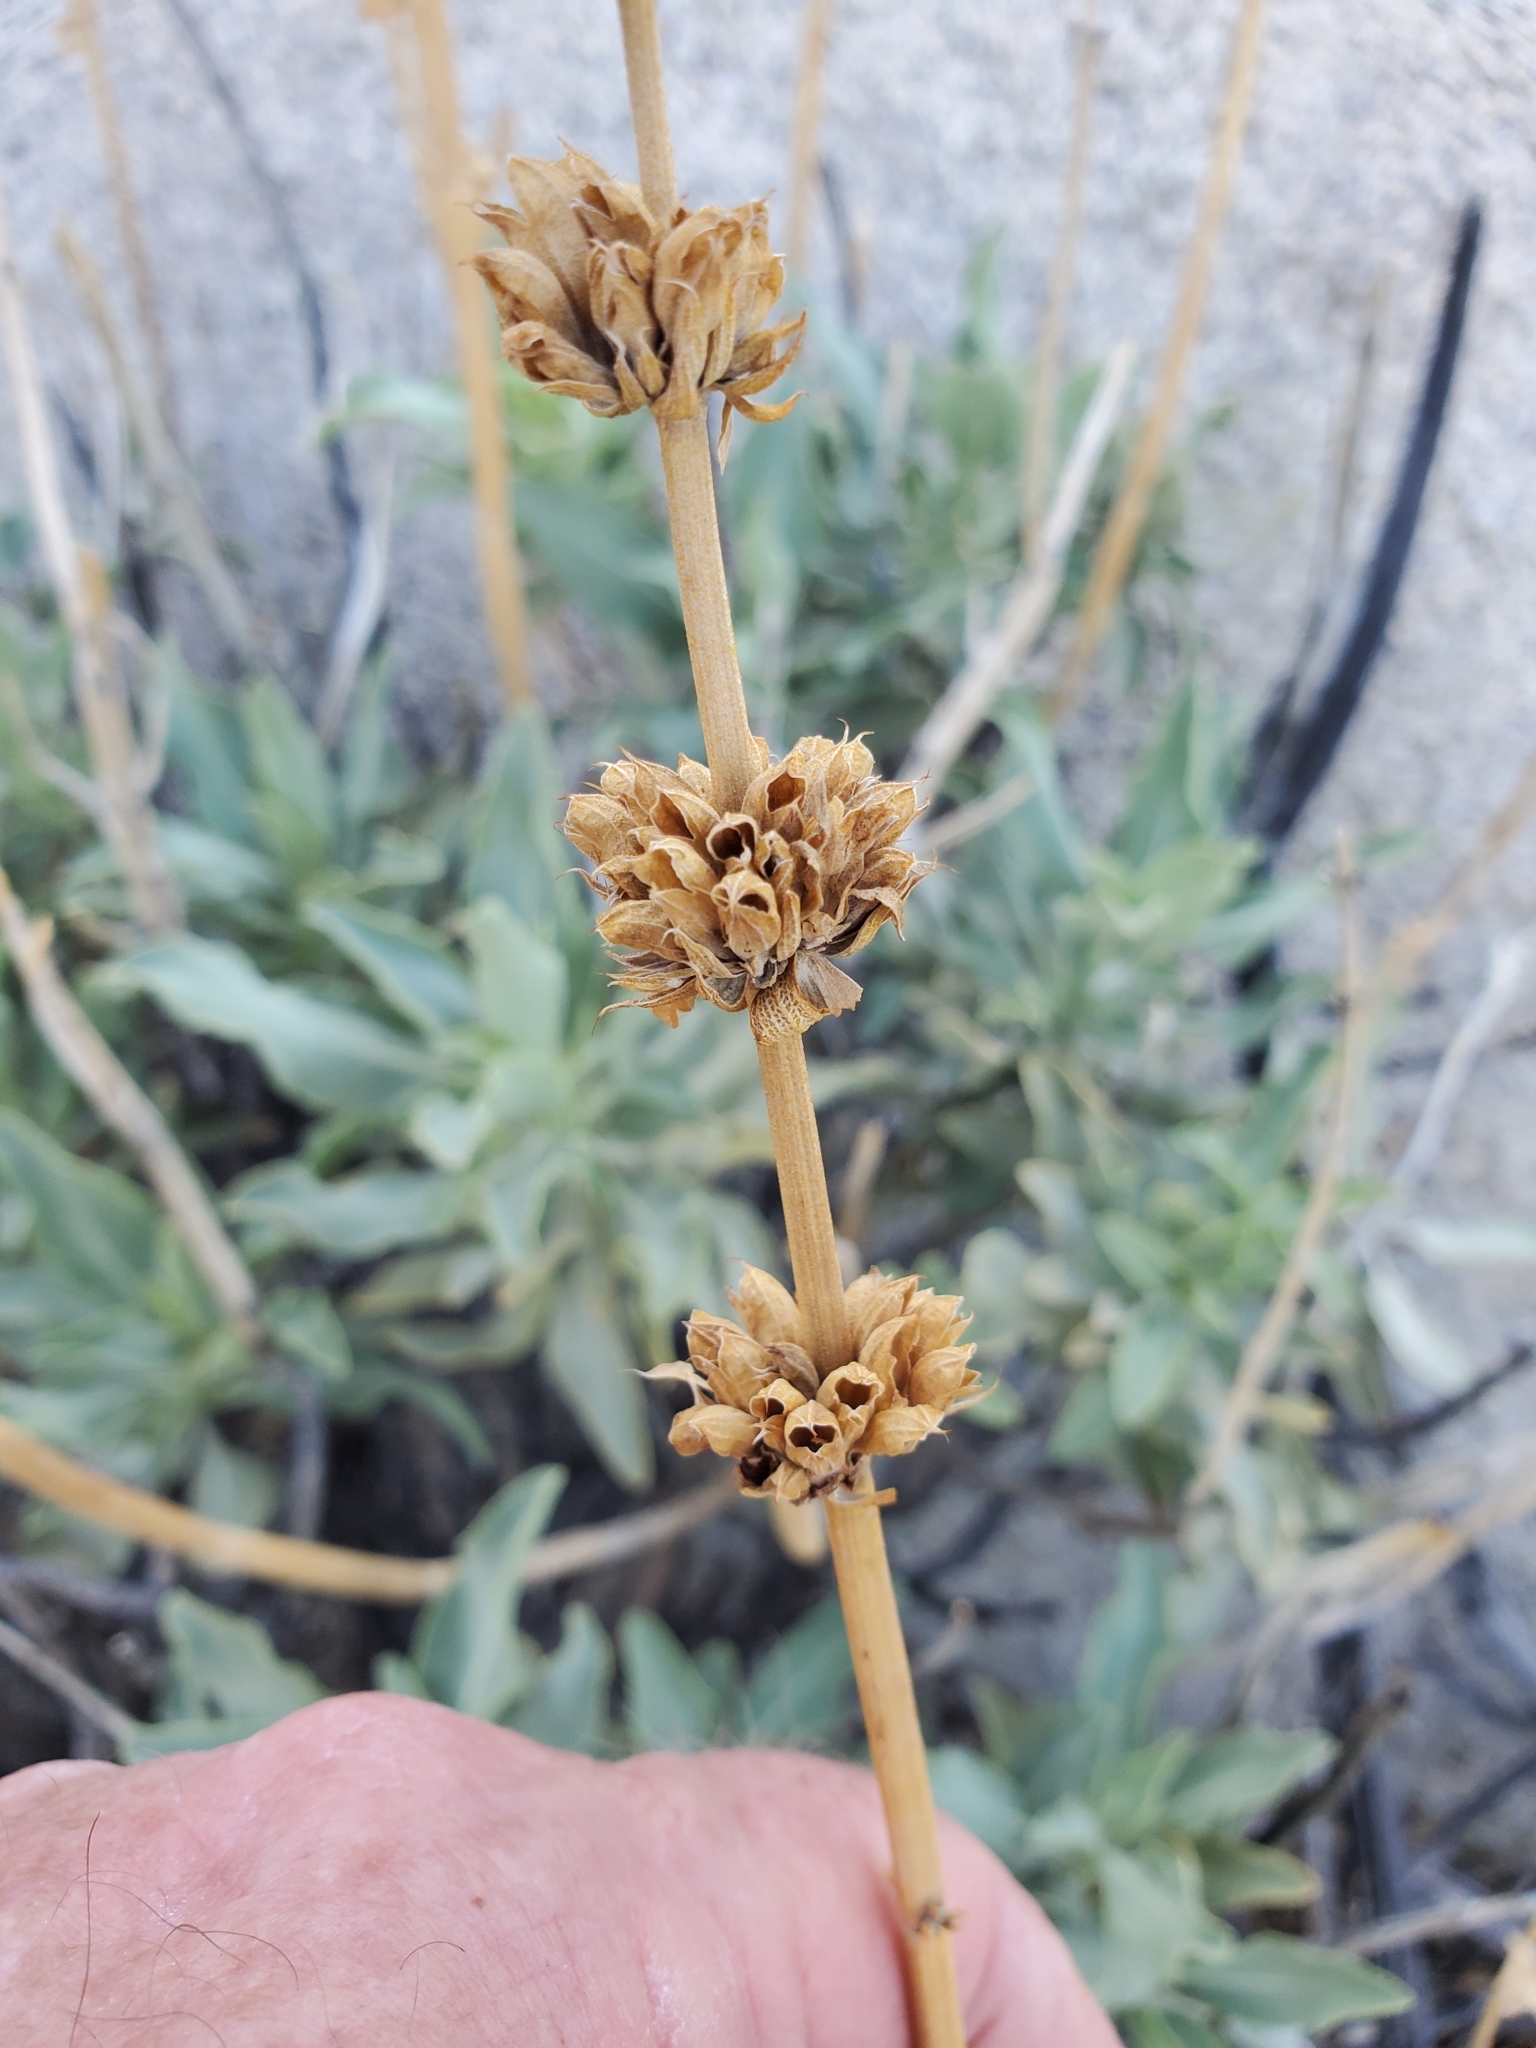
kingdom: Plantae
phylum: Tracheophyta
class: Magnoliopsida
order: Lamiales
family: Lamiaceae
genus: Salvia
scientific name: Salvia vaseyi
